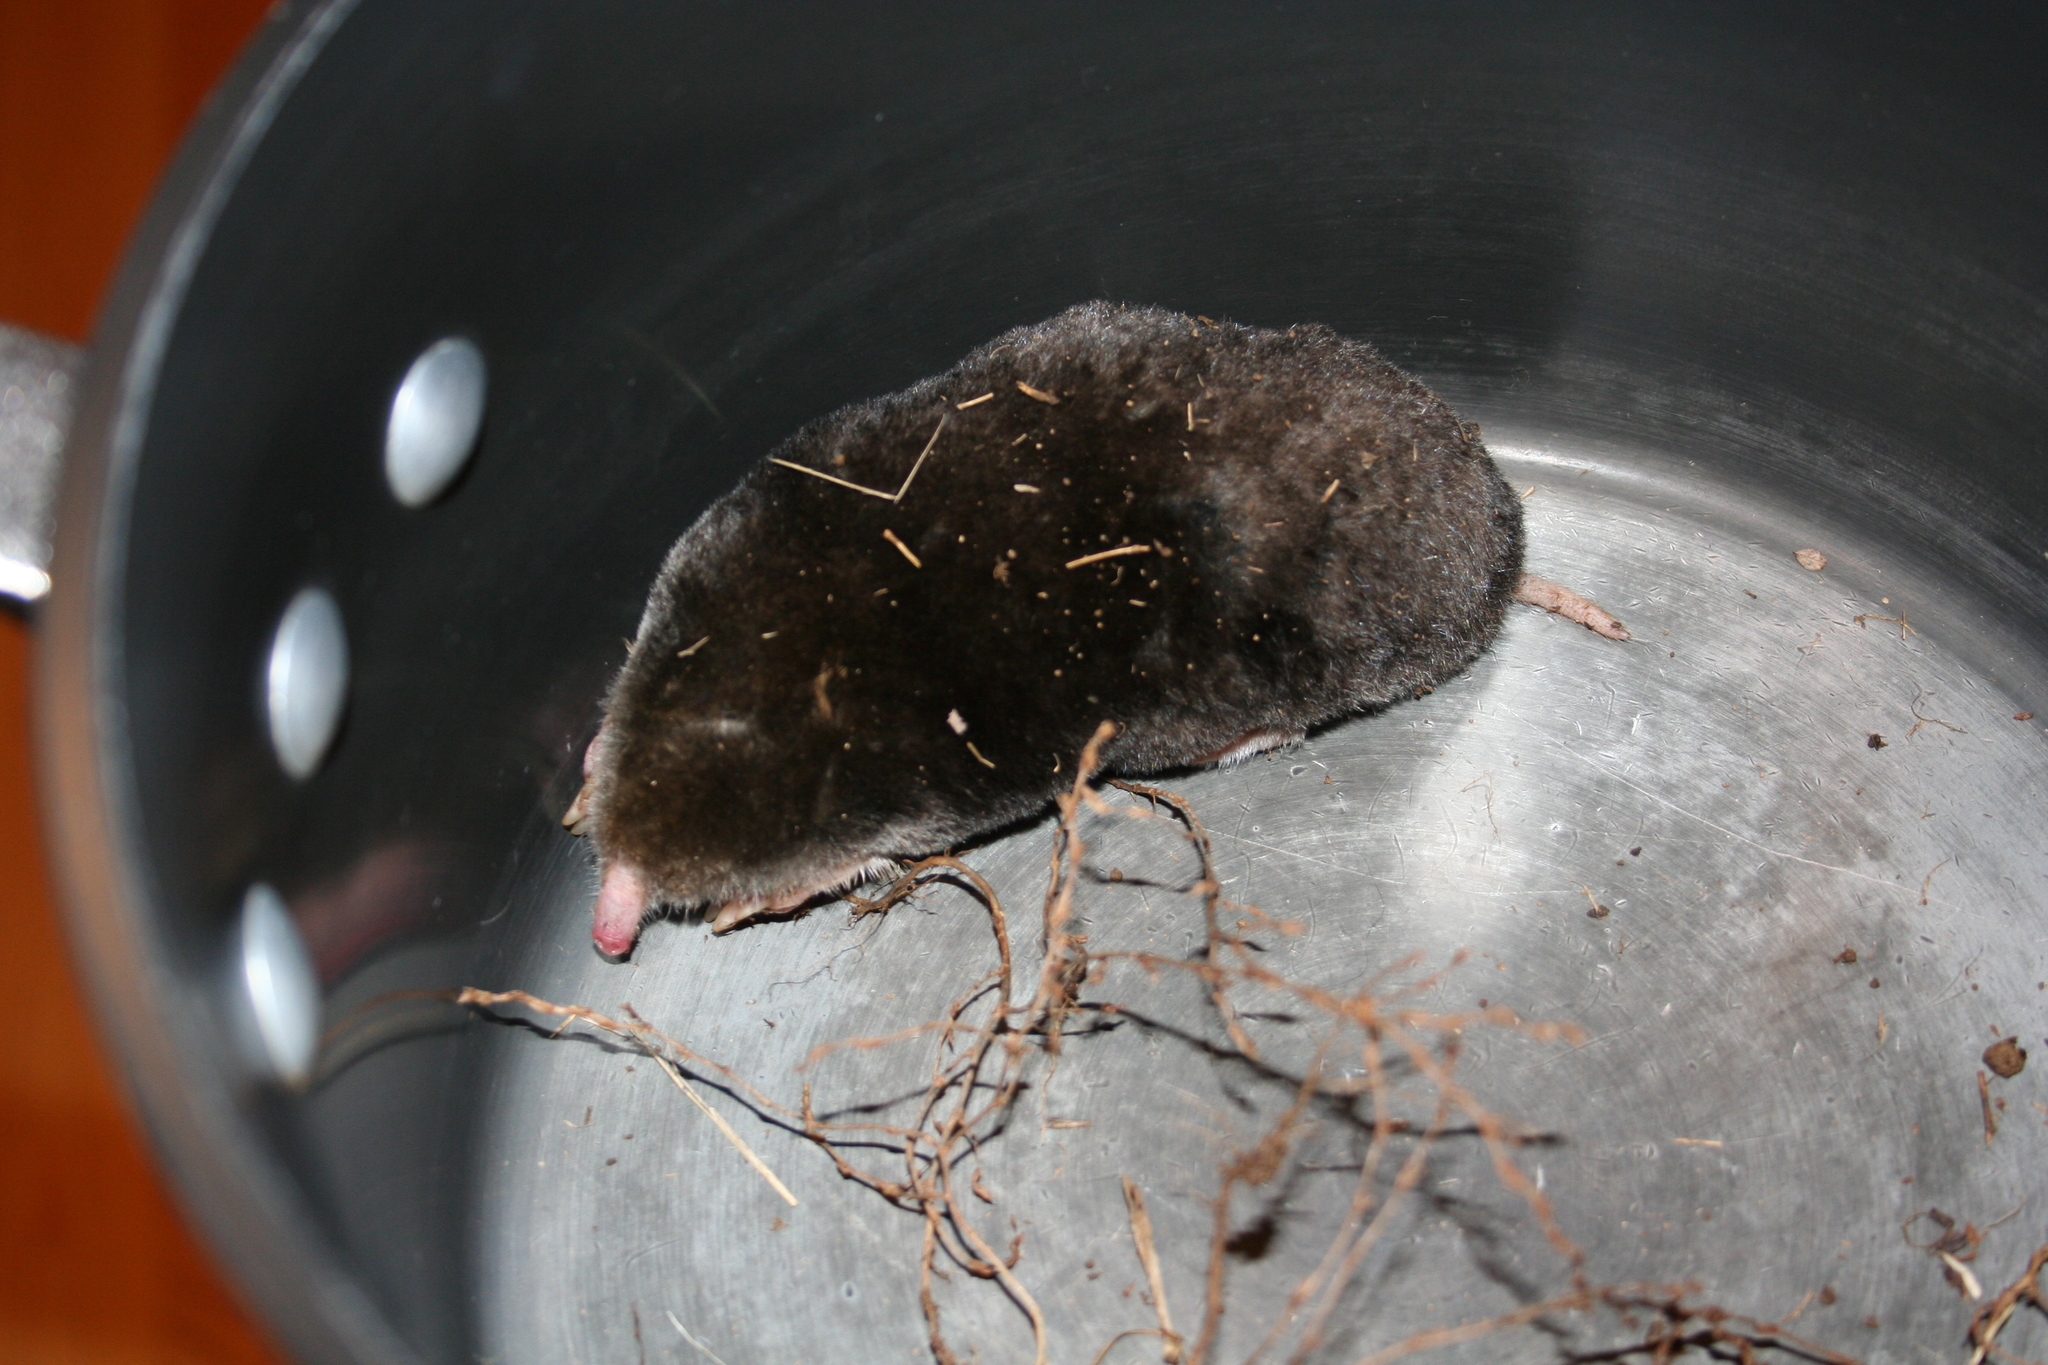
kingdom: Animalia
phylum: Chordata
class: Mammalia
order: Soricomorpha
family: Talpidae
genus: Scalopus
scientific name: Scalopus aquaticus
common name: Eastern mole
